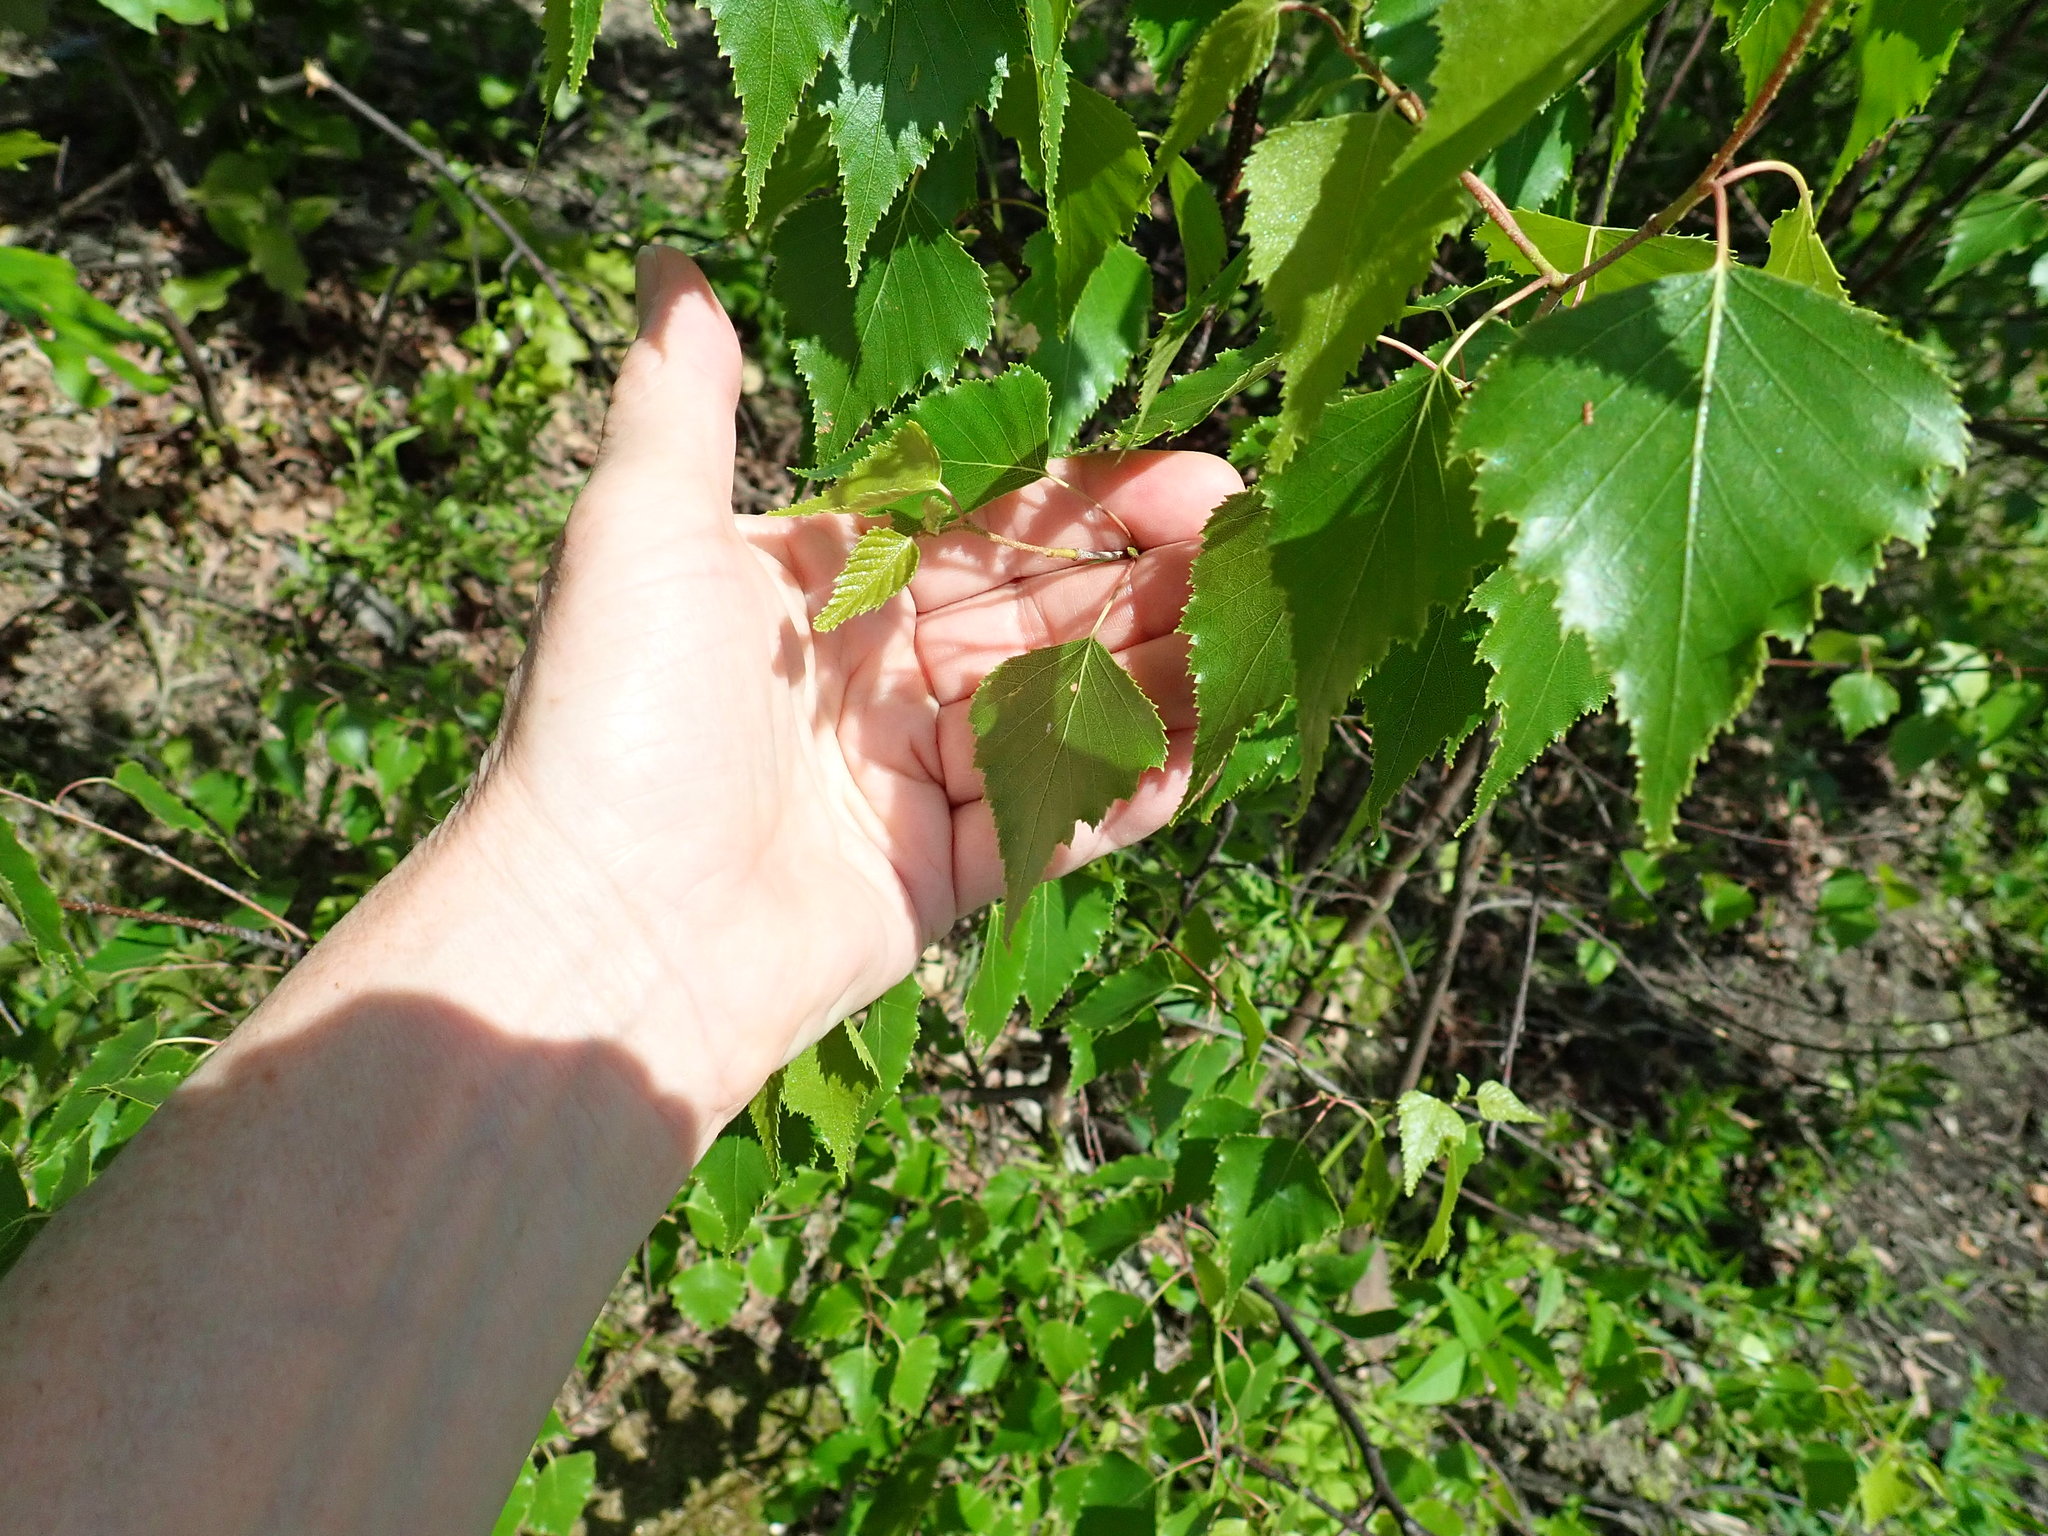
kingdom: Plantae
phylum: Tracheophyta
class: Magnoliopsida
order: Fagales
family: Betulaceae
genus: Betula
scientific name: Betula populifolia
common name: Fire birch
